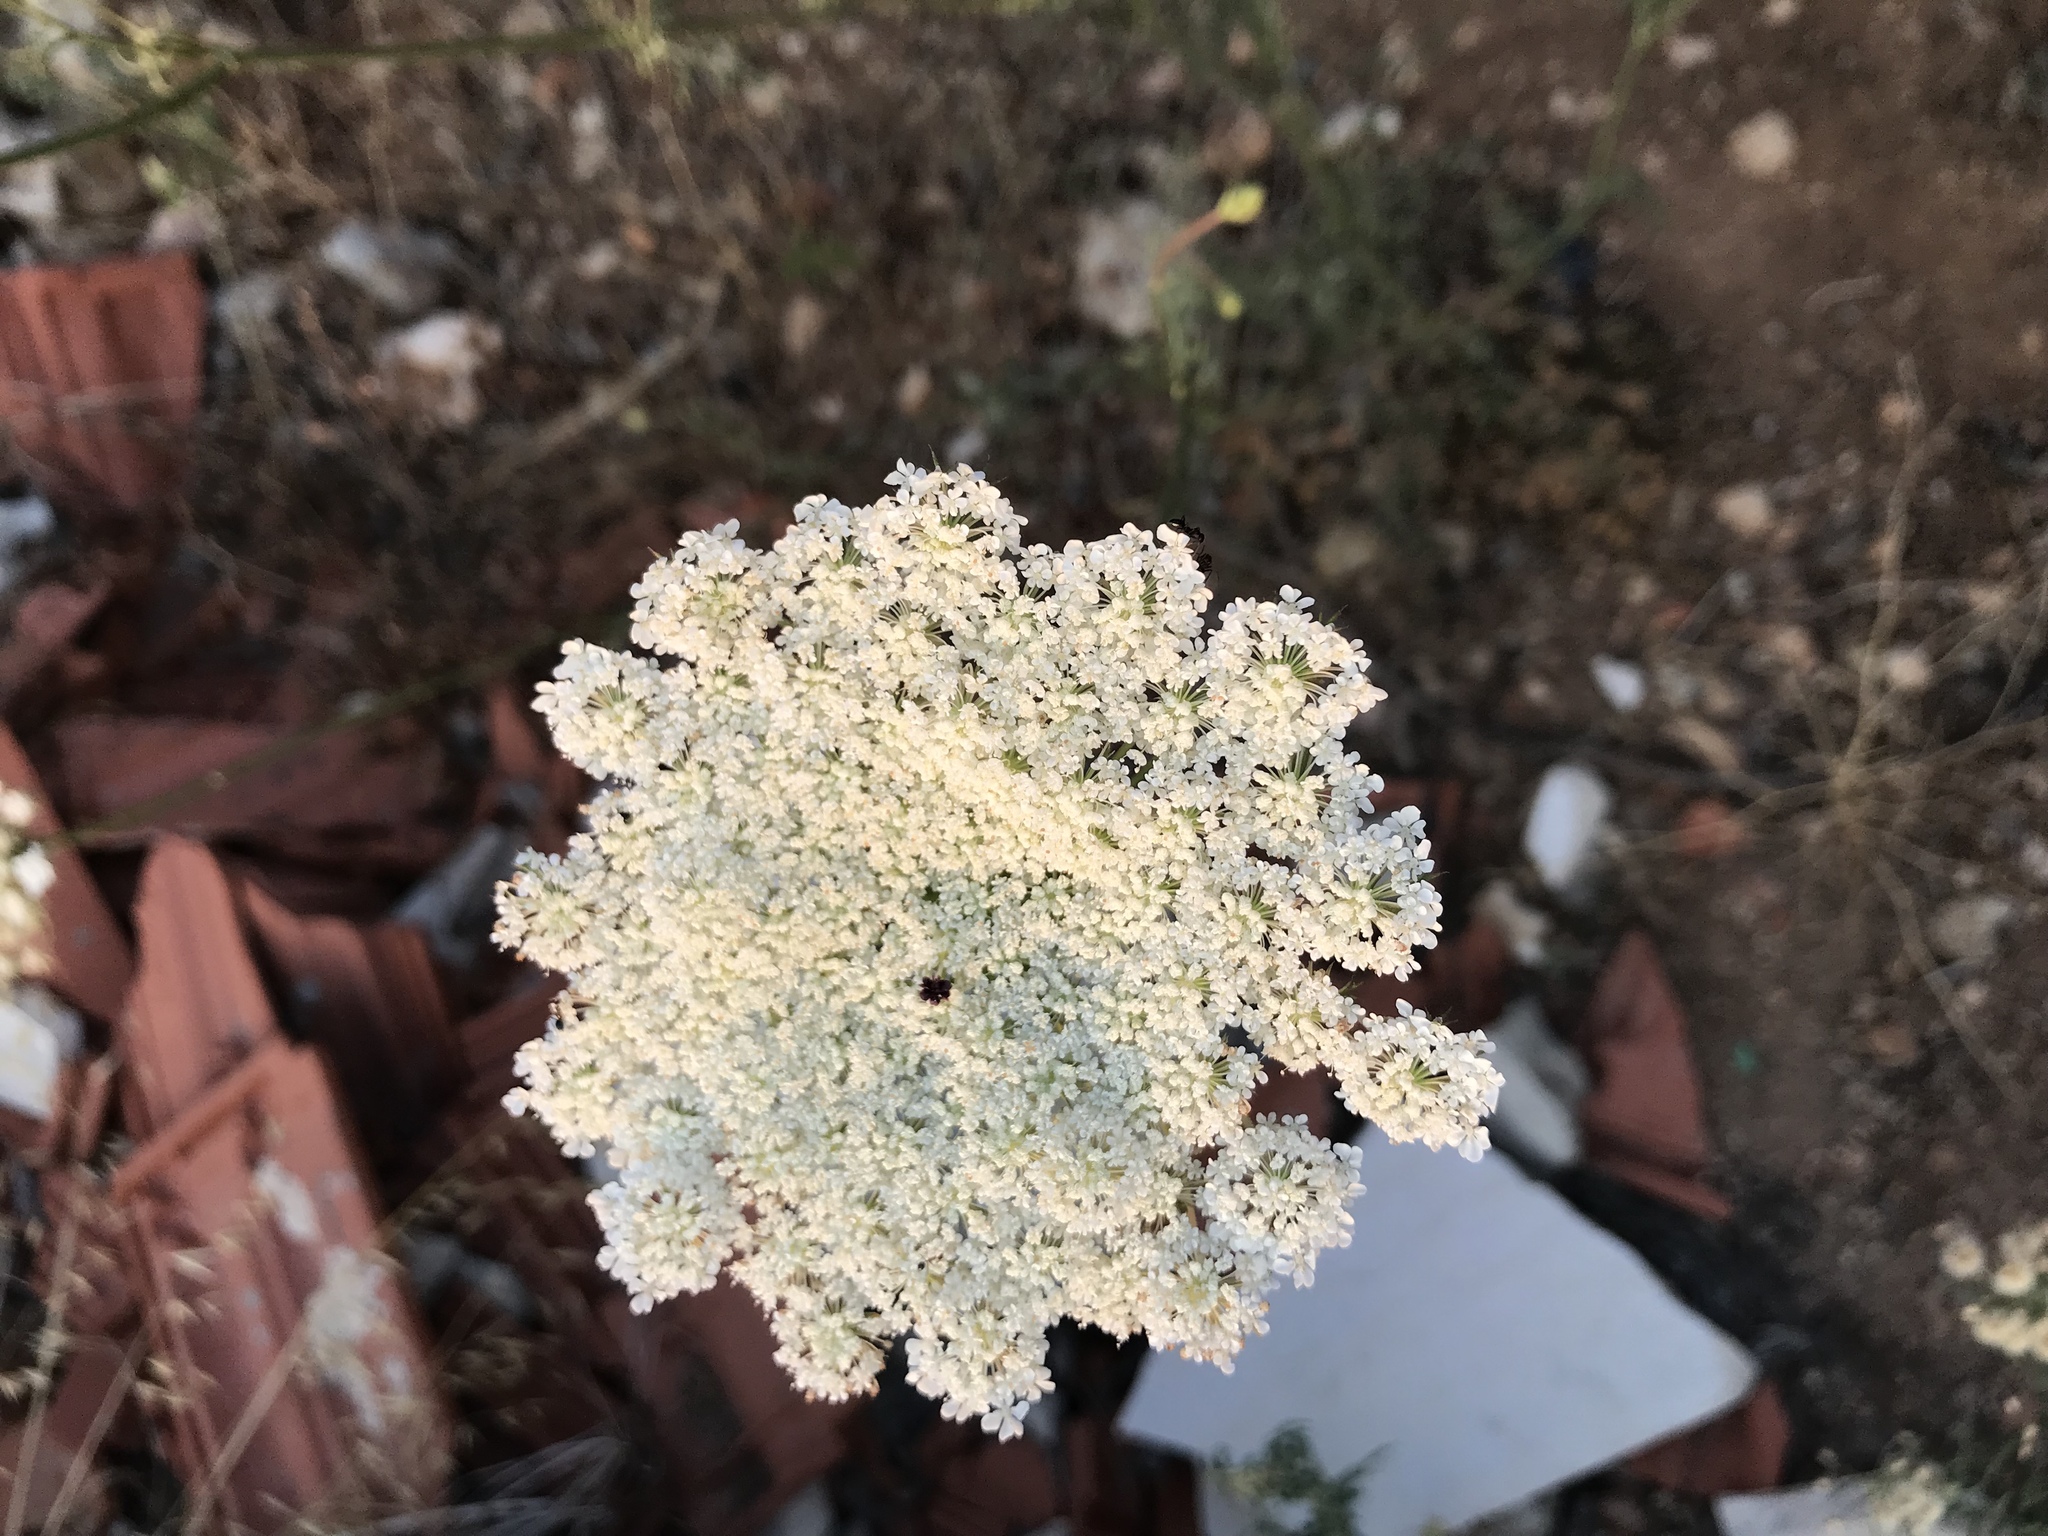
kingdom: Plantae
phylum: Tracheophyta
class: Magnoliopsida
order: Apiales
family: Apiaceae
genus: Daucus
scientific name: Daucus carota
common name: Wild carrot
